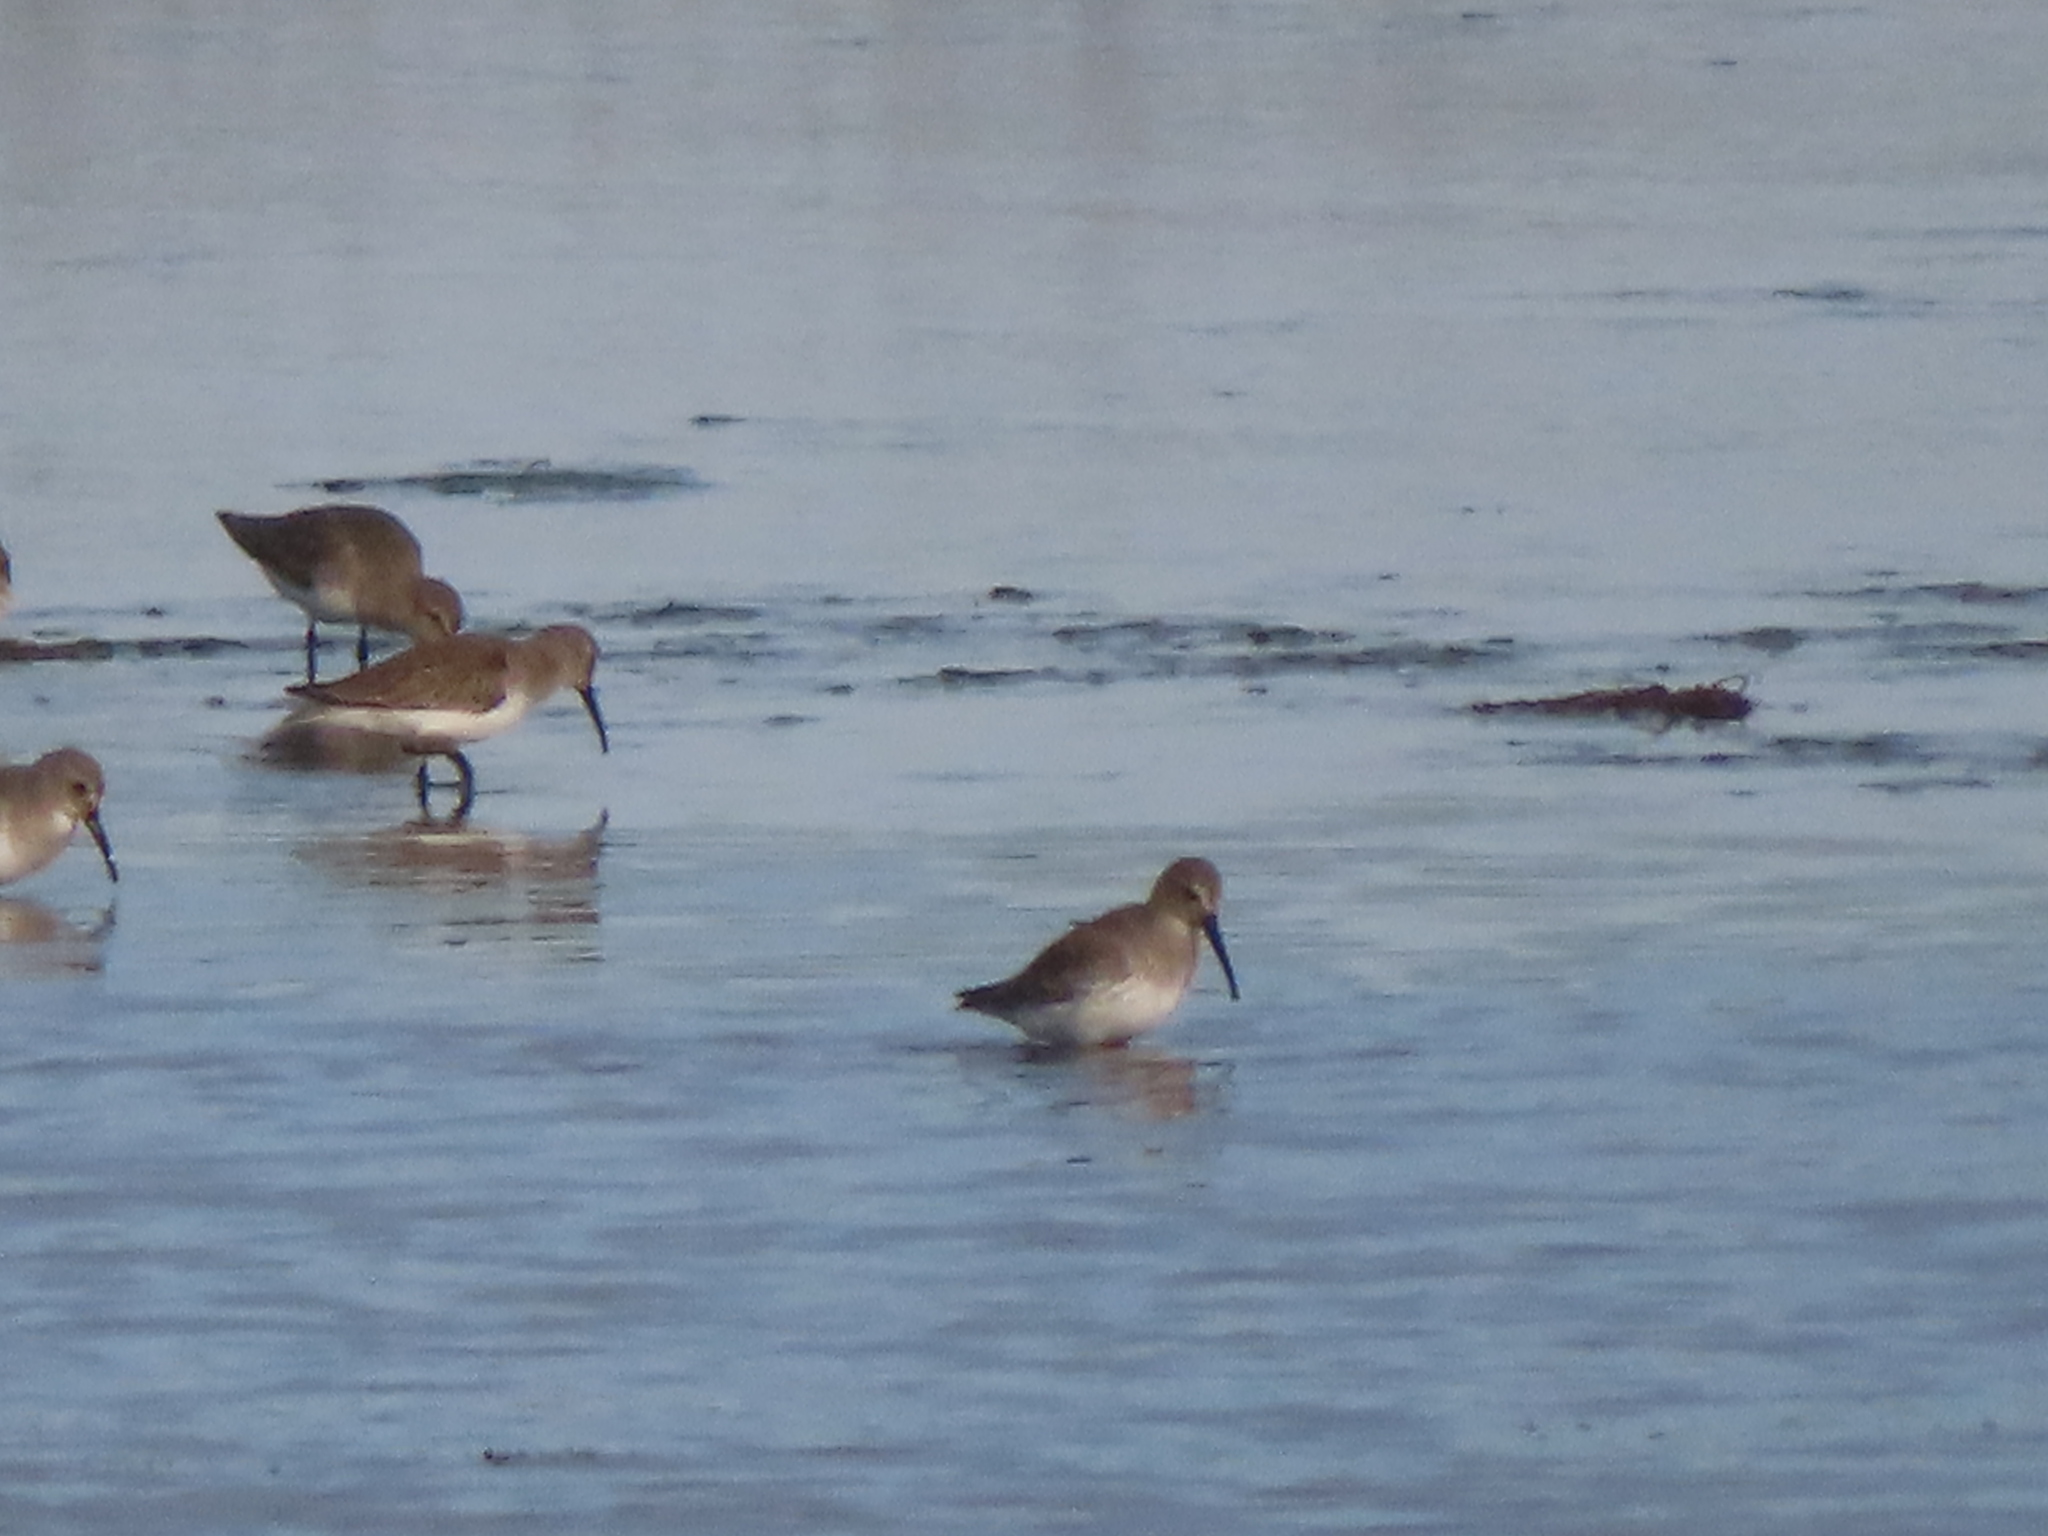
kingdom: Animalia
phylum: Chordata
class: Aves
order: Charadriiformes
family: Scolopacidae
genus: Calidris
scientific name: Calidris alpina
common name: Dunlin
